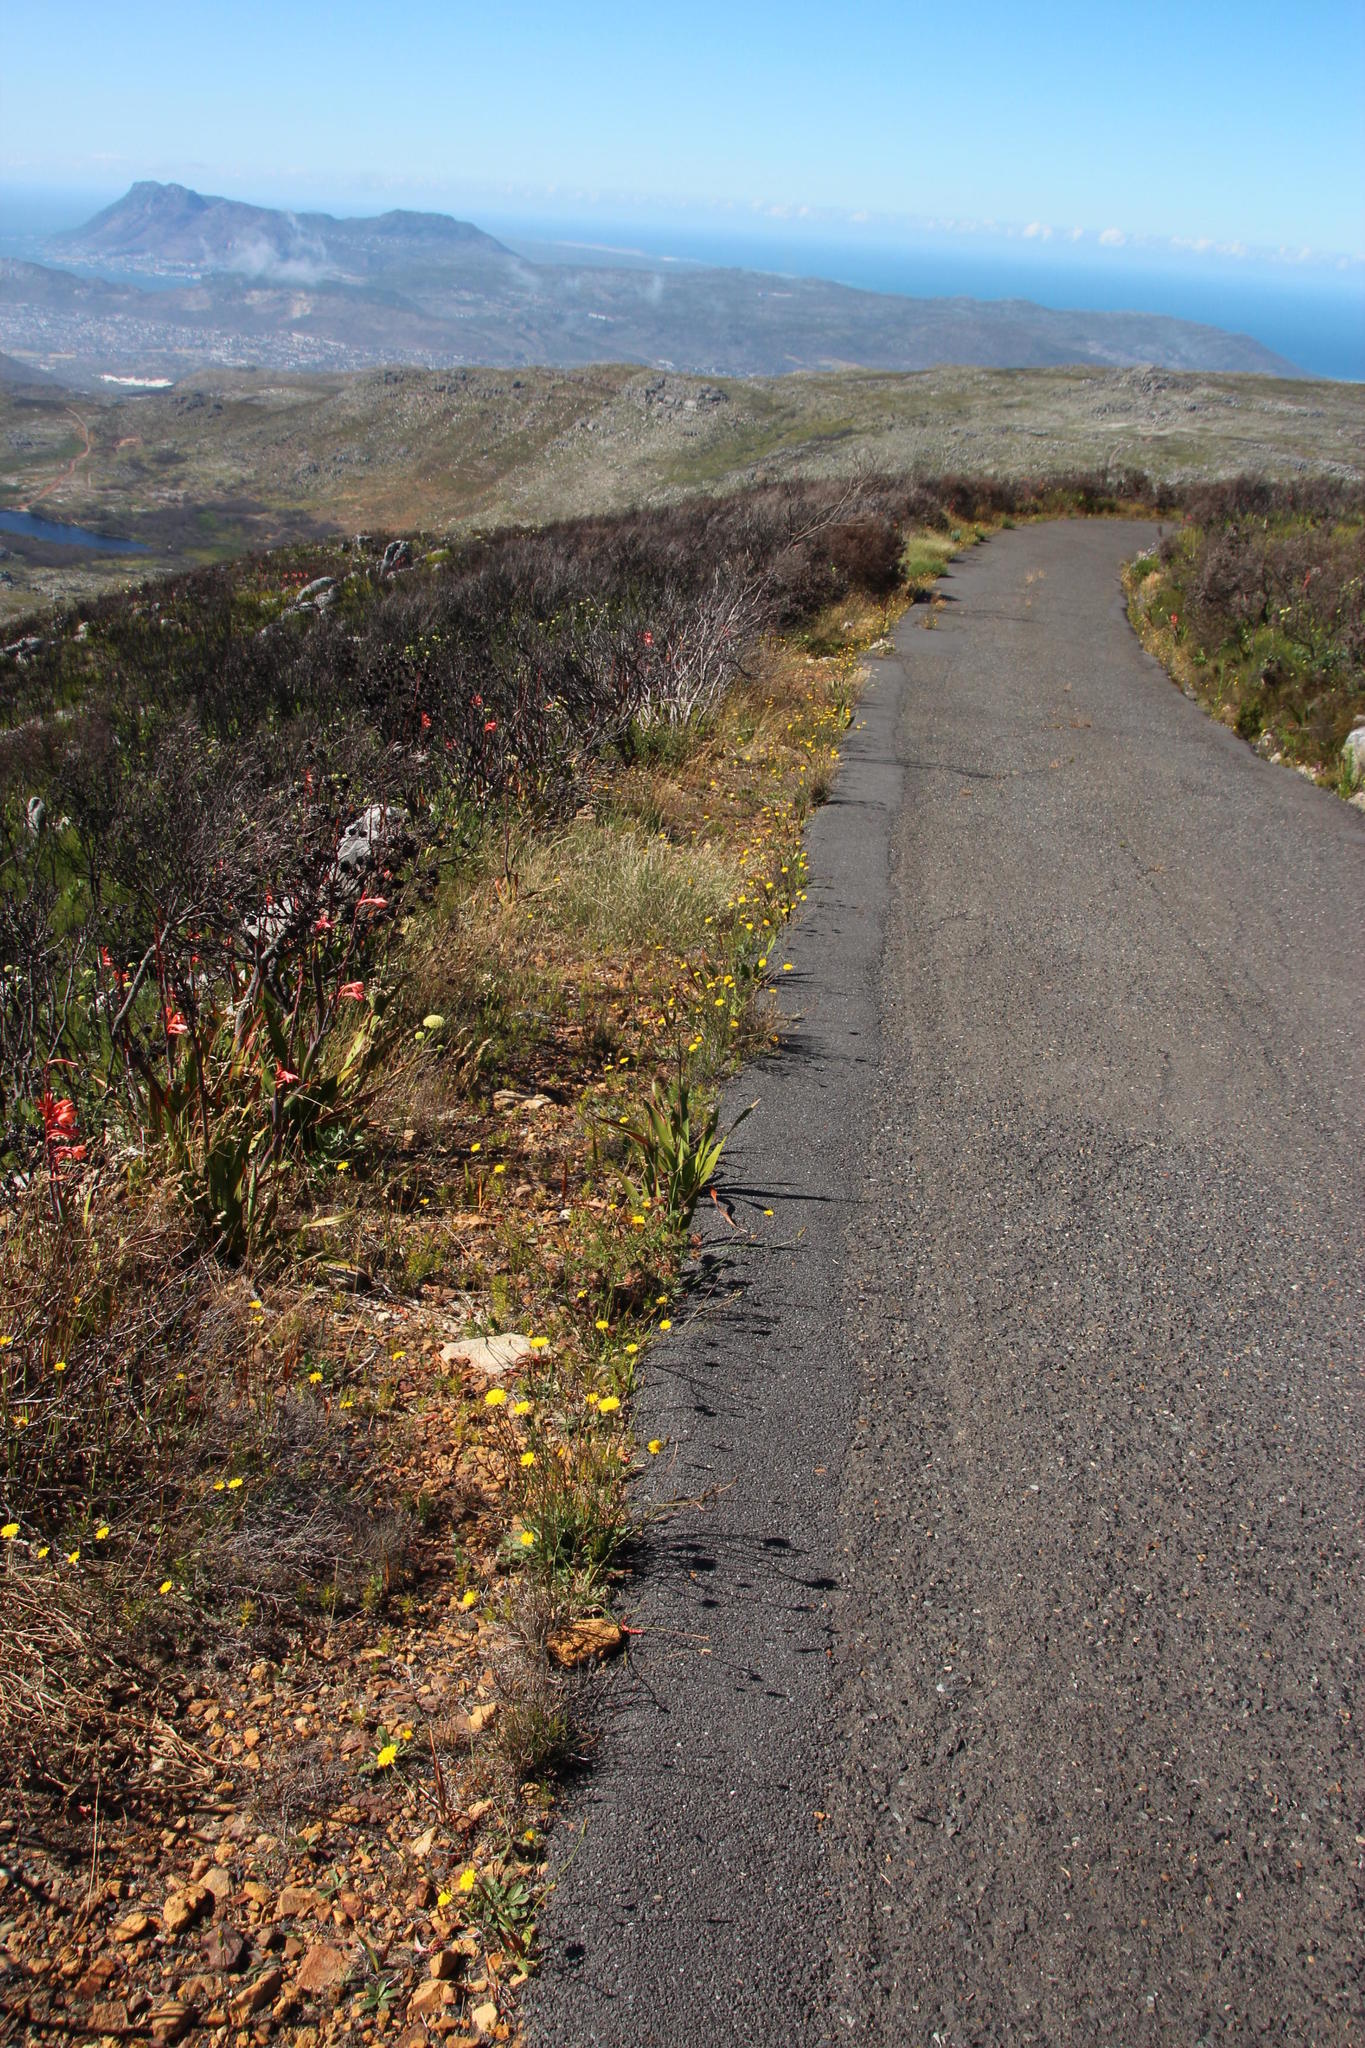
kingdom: Plantae
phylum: Tracheophyta
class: Magnoliopsida
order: Asterales
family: Asteraceae
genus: Hypochaeris
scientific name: Hypochaeris radicata
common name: Flatweed
